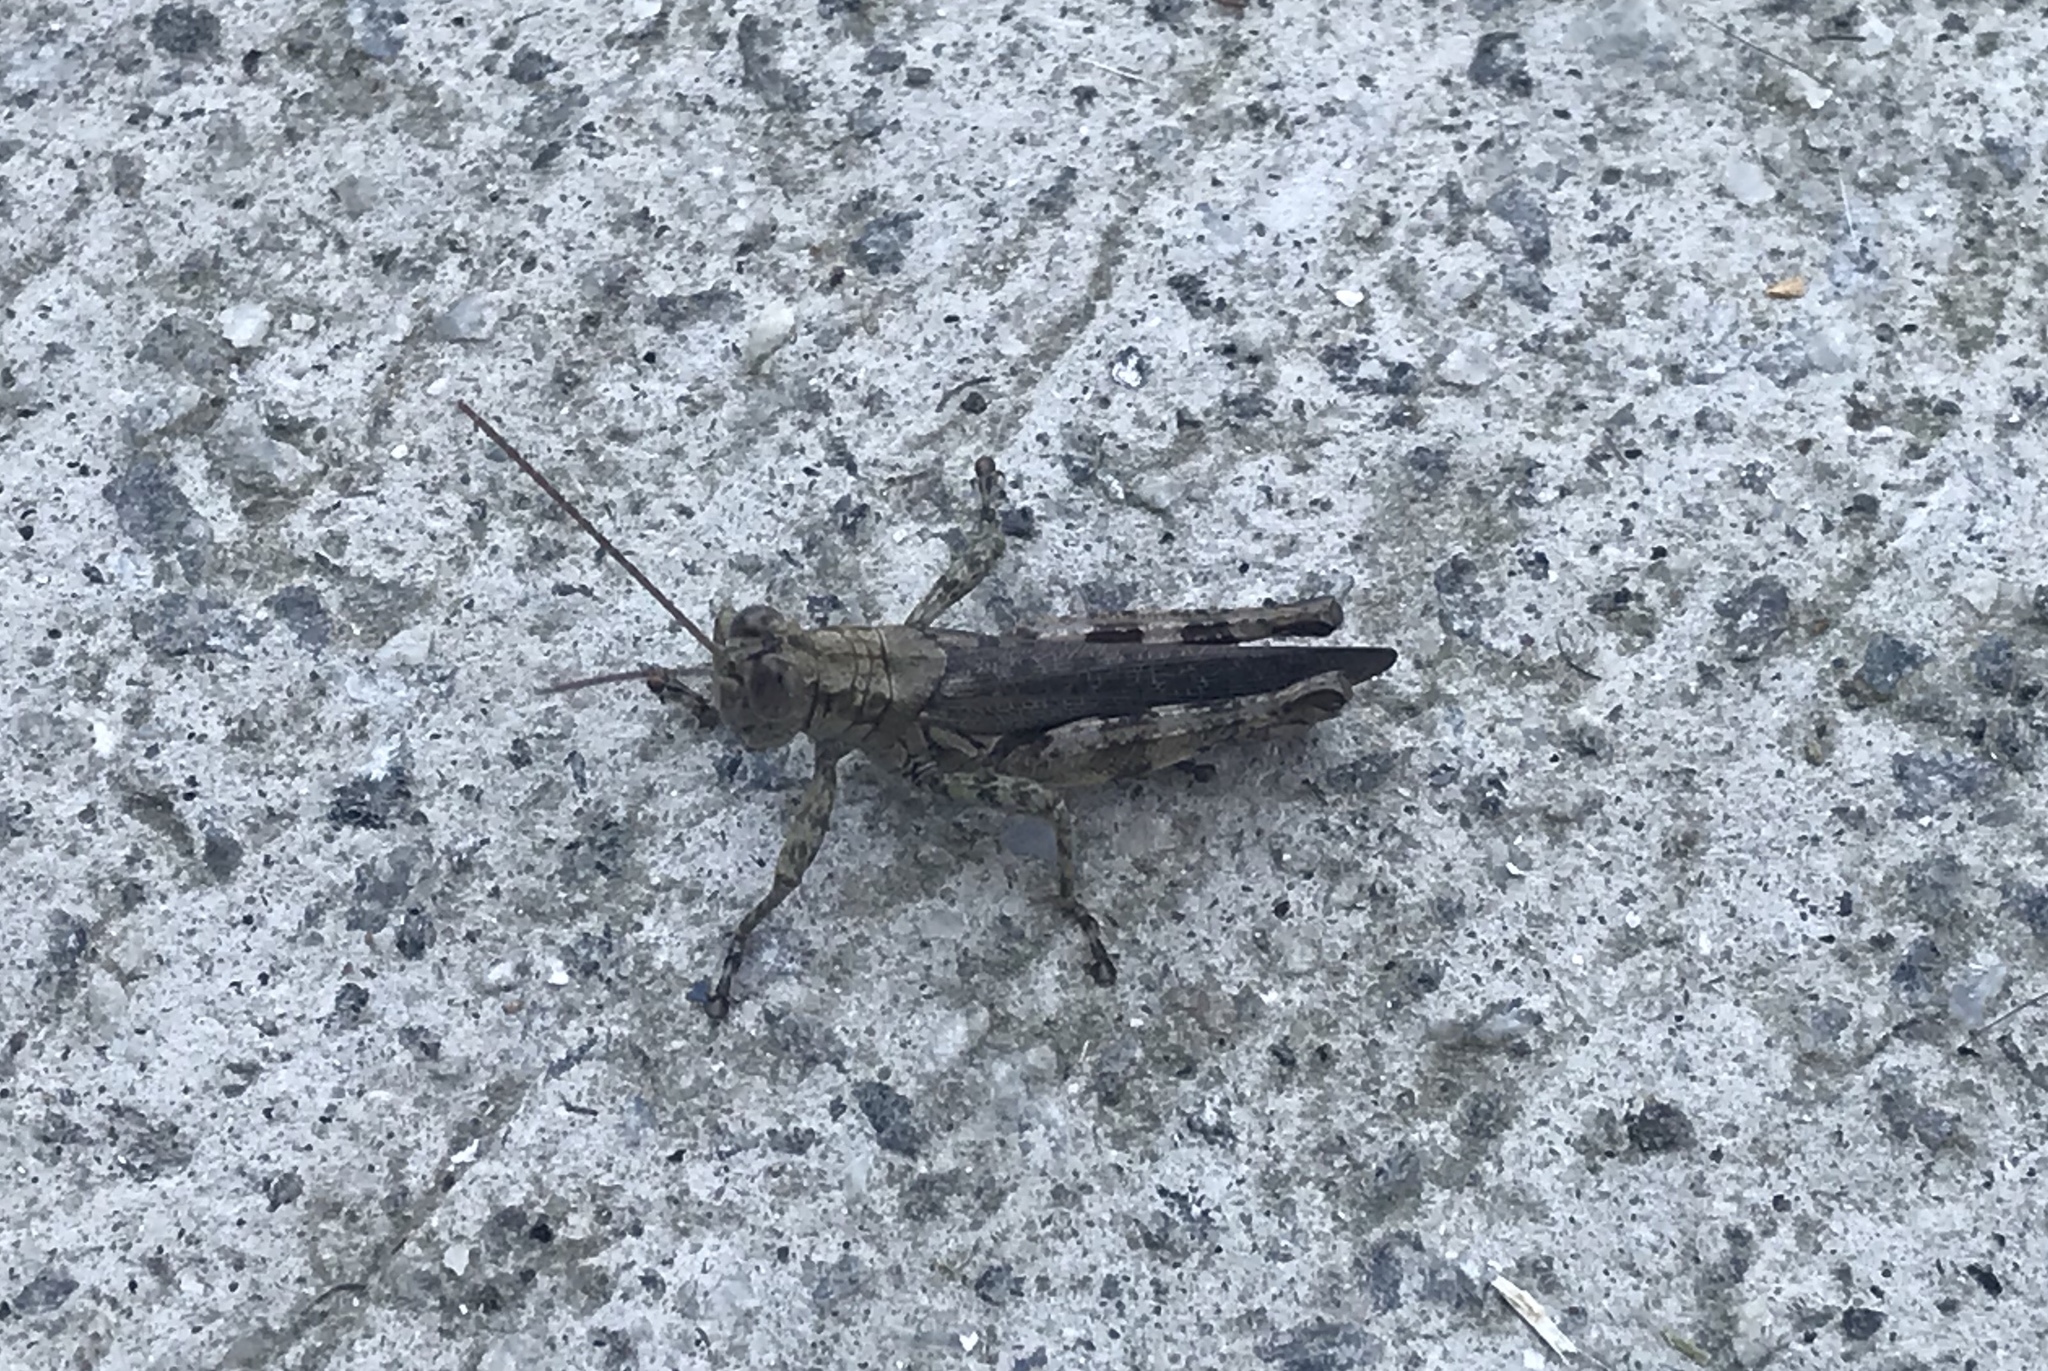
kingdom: Animalia
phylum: Arthropoda
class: Insecta
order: Orthoptera
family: Acrididae
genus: Melanoplus
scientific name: Melanoplus punctulatus
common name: Pine-tree spur-throat grasshopper
